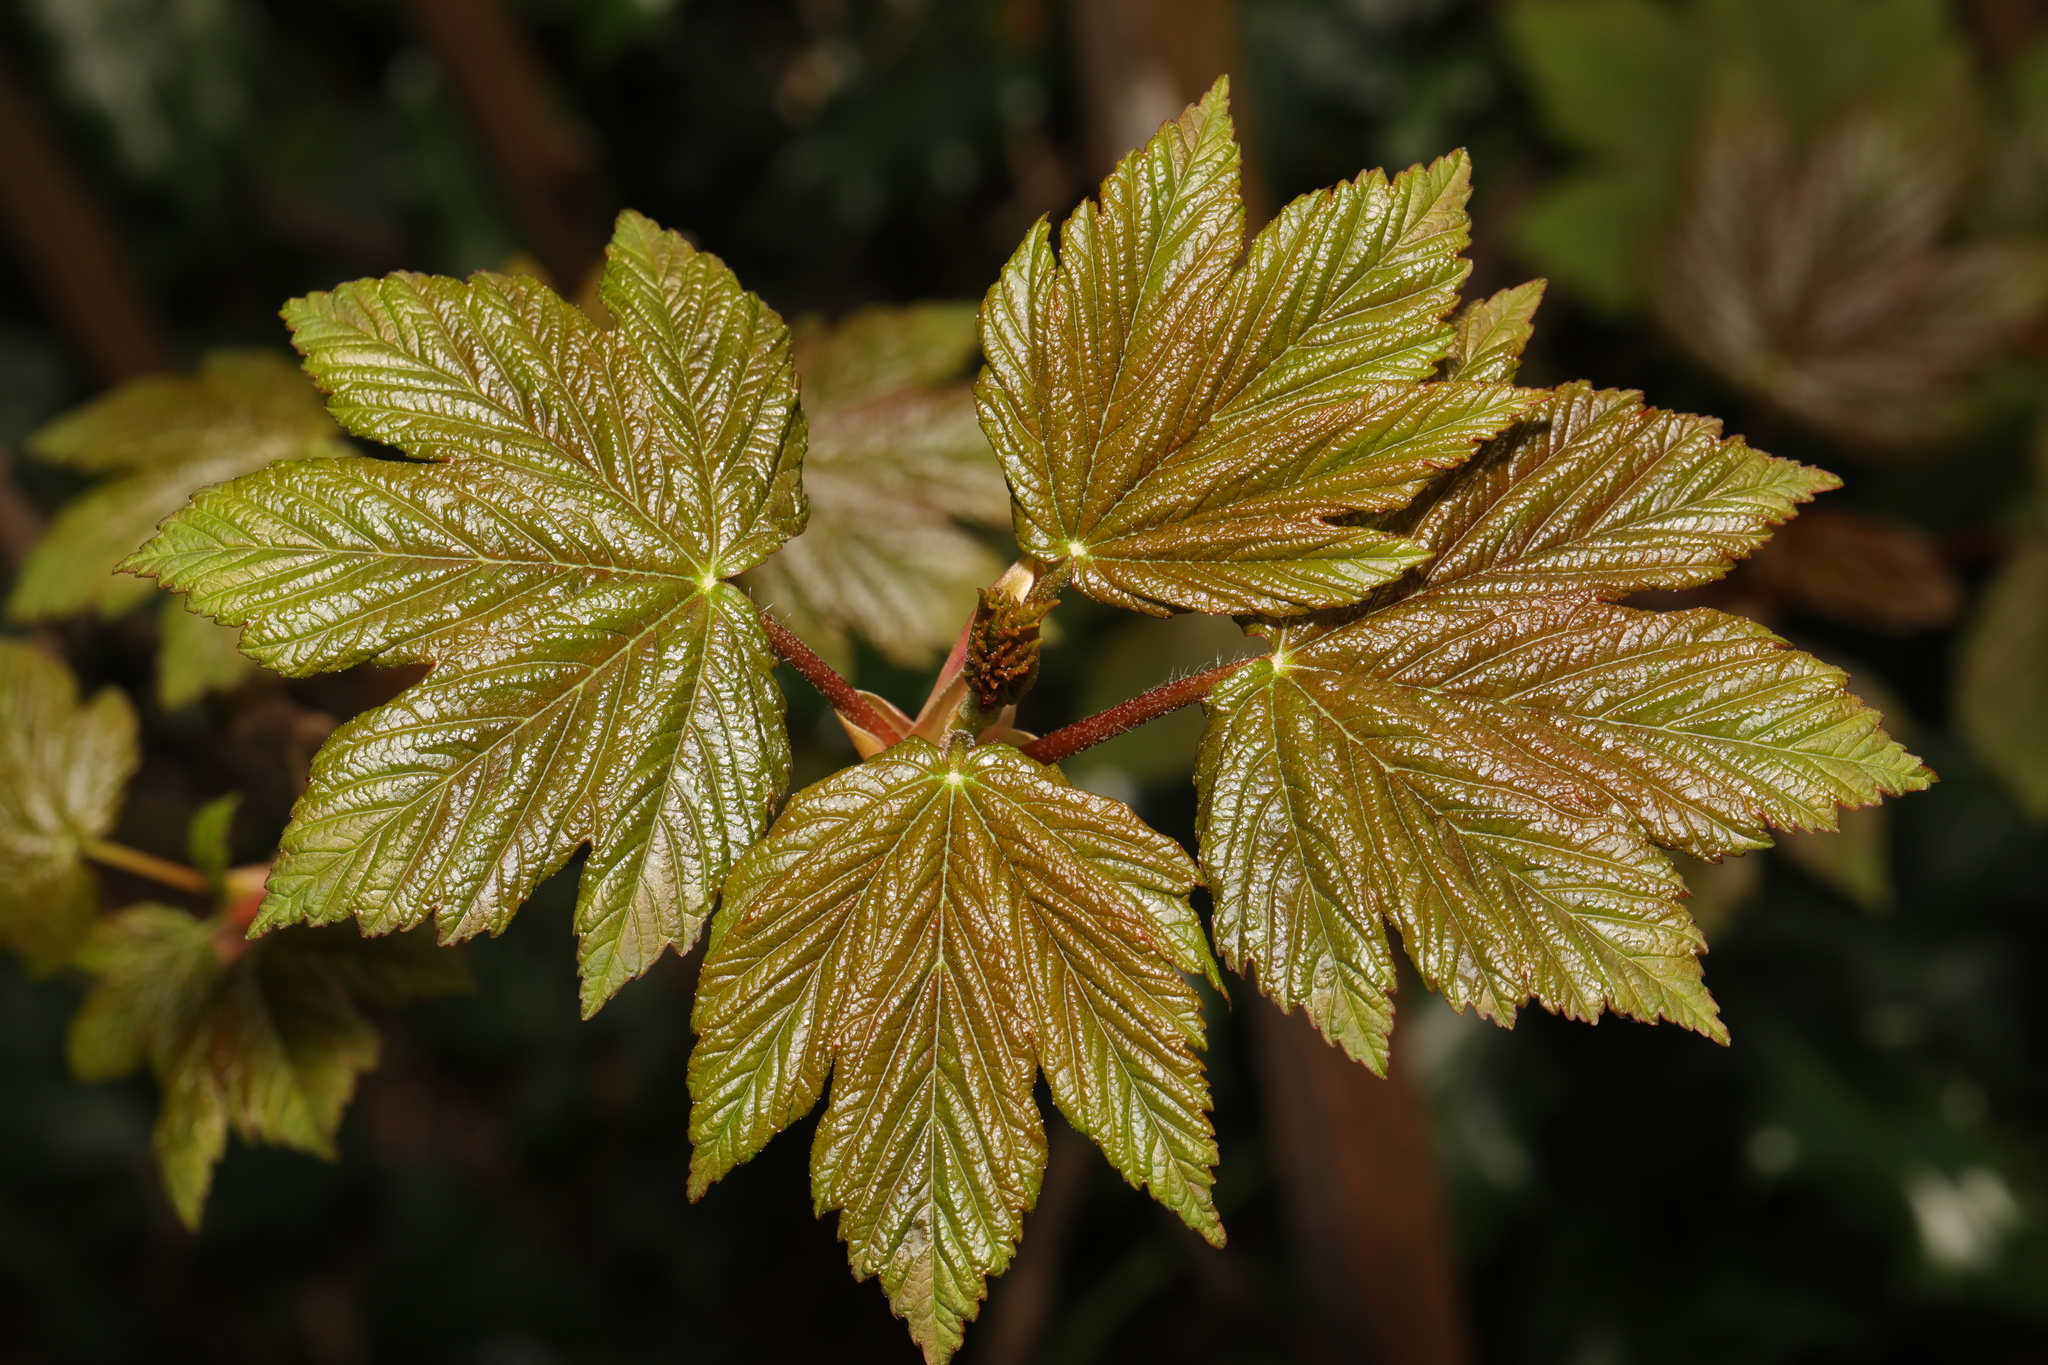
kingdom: Plantae
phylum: Tracheophyta
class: Magnoliopsida
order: Sapindales
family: Sapindaceae
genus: Acer
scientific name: Acer pseudoplatanus
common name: Sycamore
